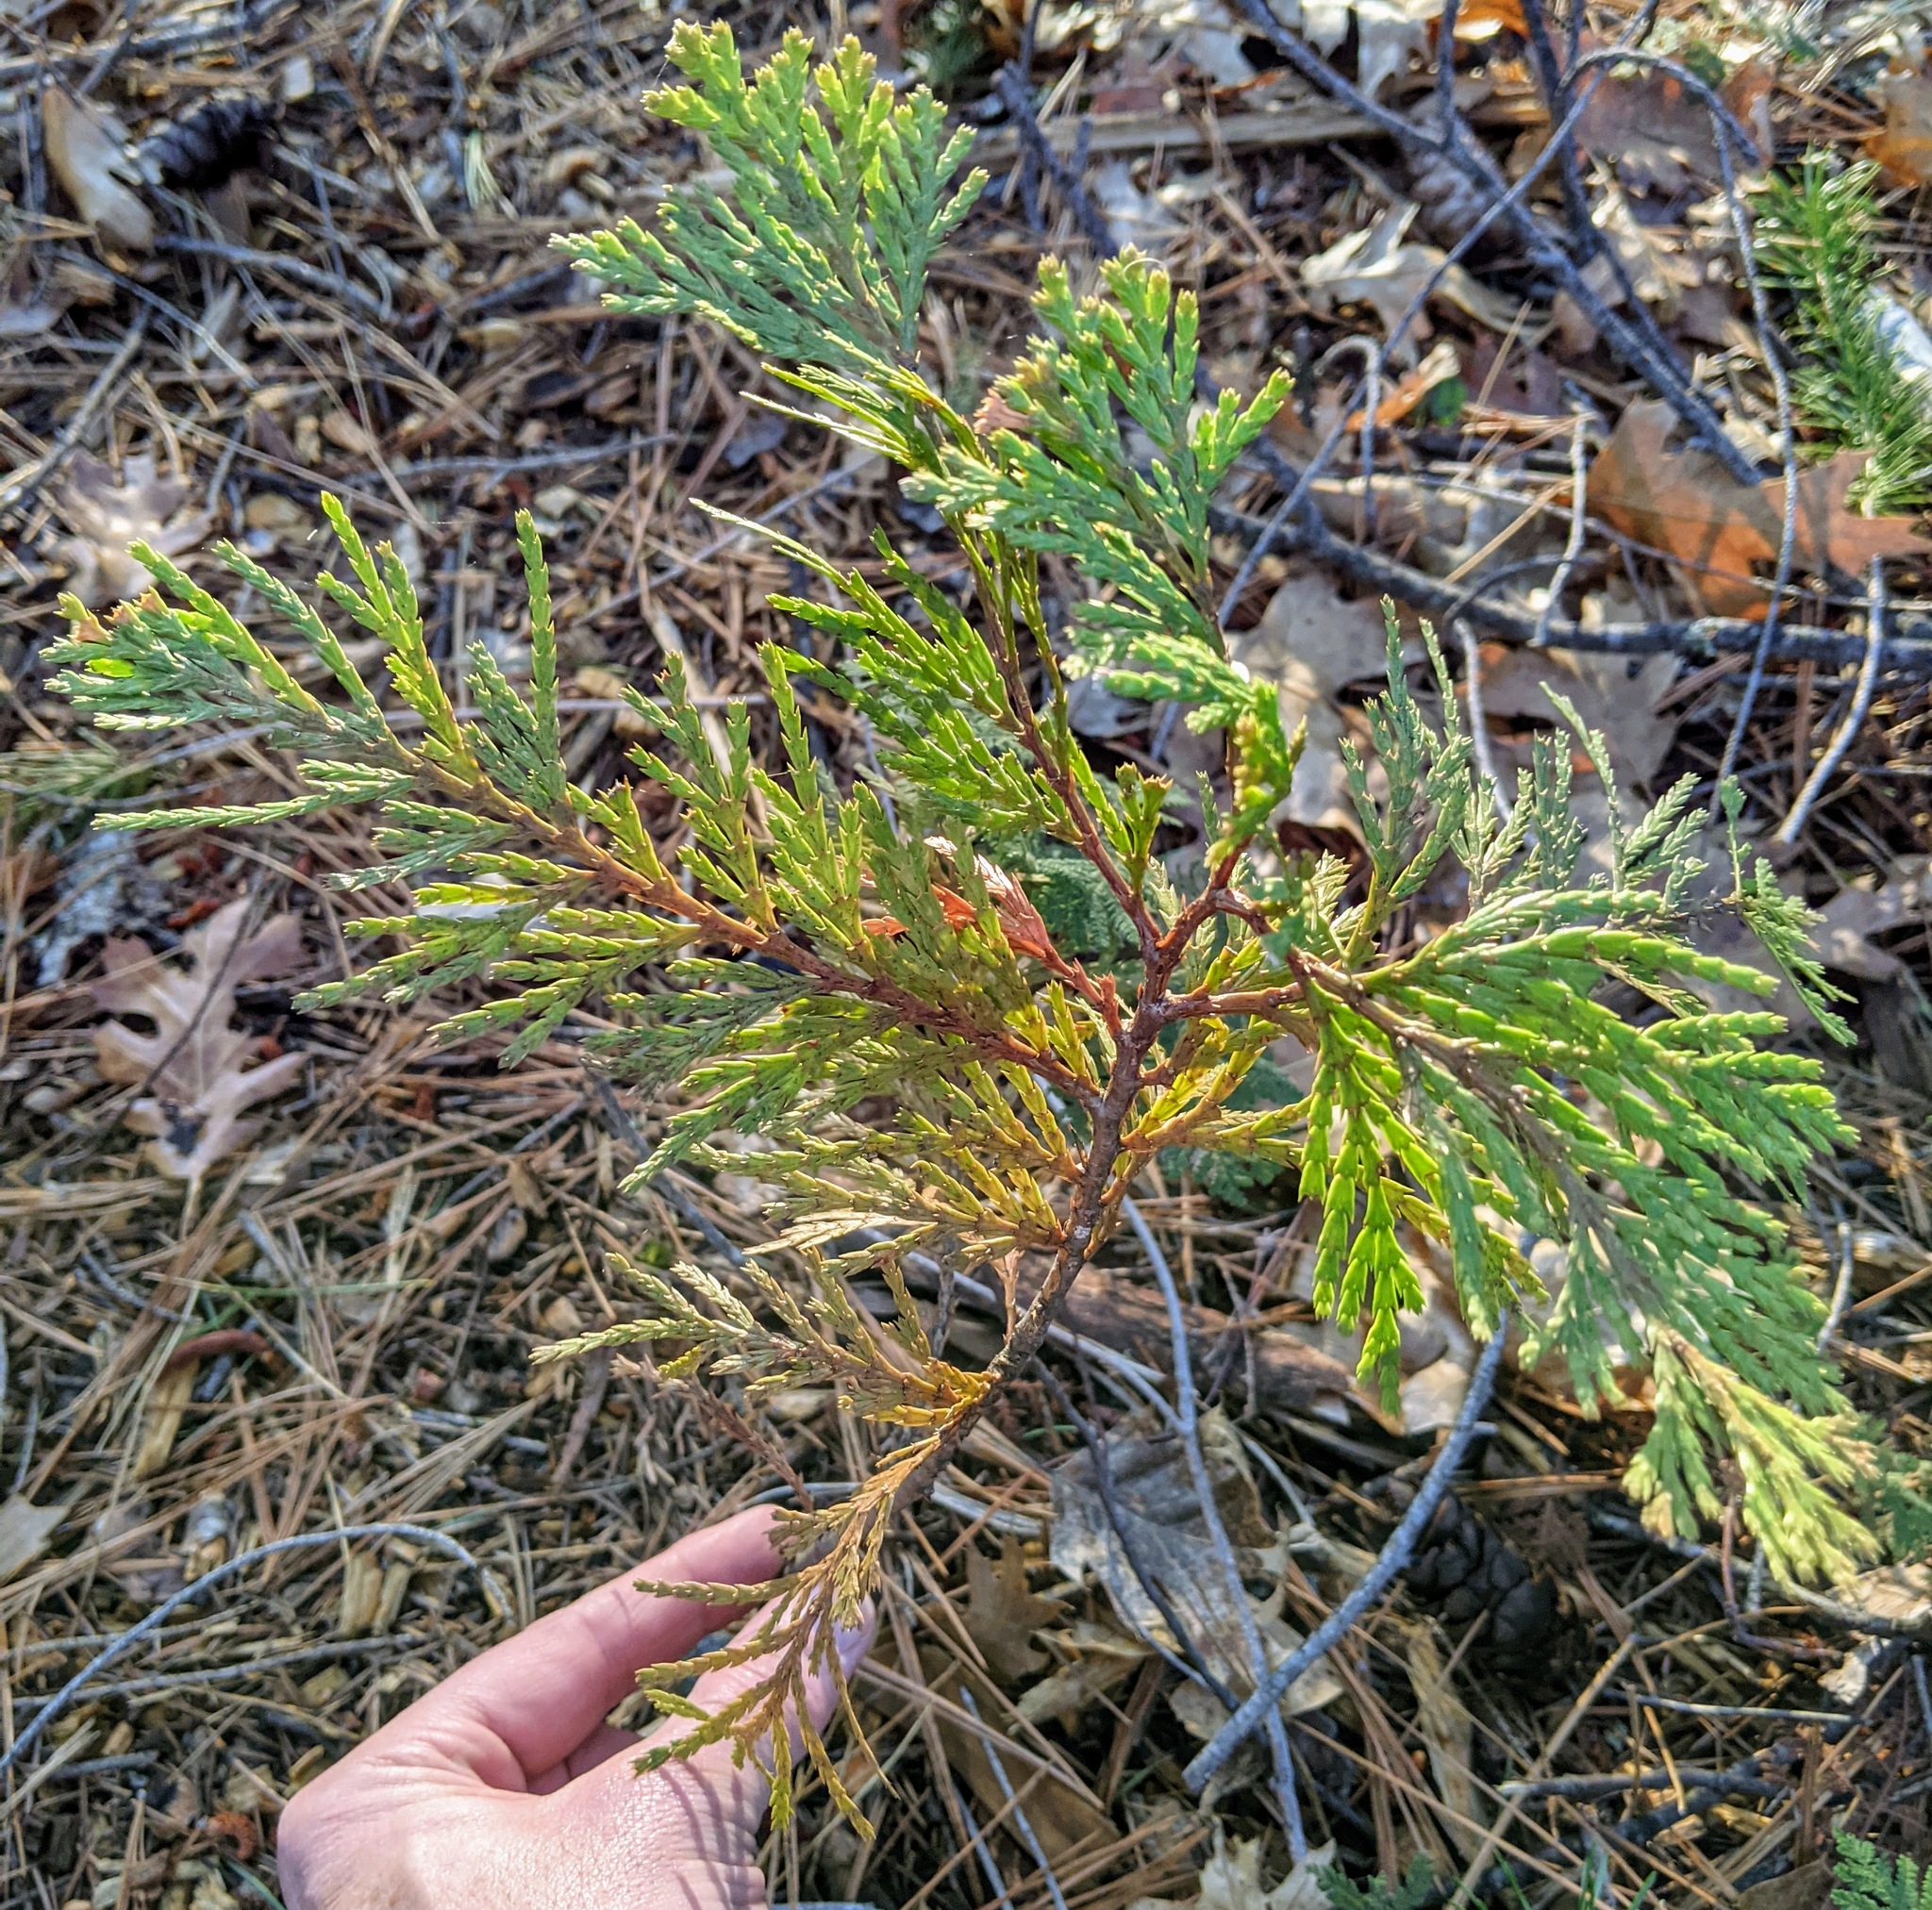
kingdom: Plantae
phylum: Tracheophyta
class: Pinopsida
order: Pinales
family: Cupressaceae
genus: Calocedrus
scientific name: Calocedrus decurrens
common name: Californian incense-cedar
